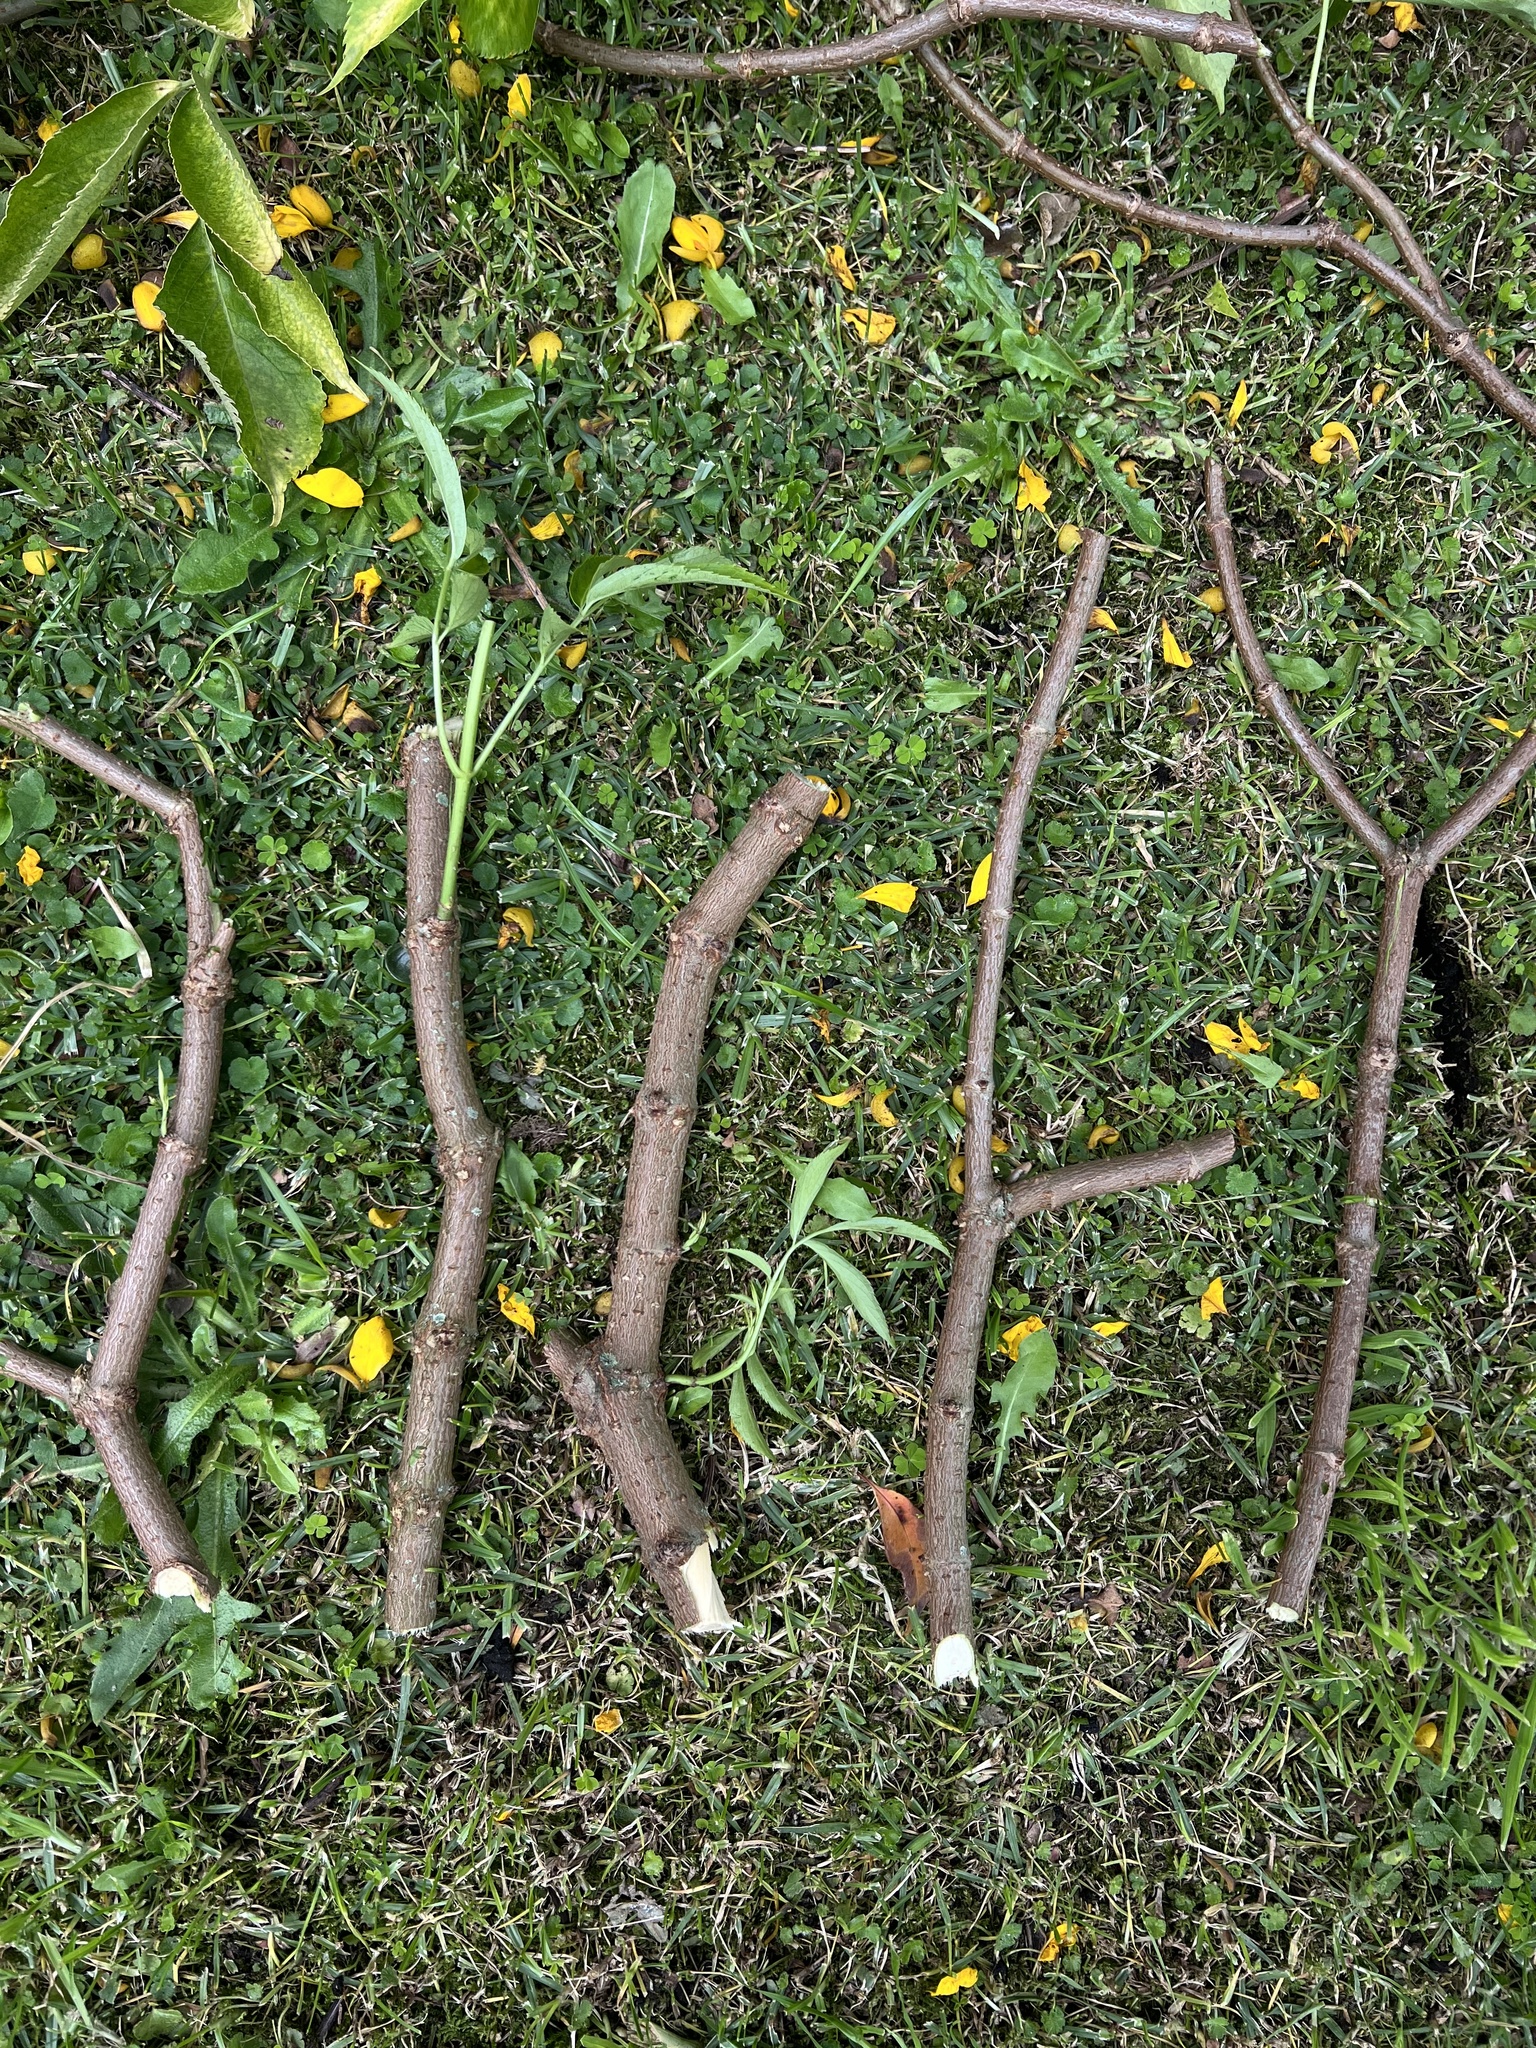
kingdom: Plantae
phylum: Tracheophyta
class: Magnoliopsida
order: Dipsacales
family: Viburnaceae
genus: Sambucus
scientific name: Sambucus nigra
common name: Elder
